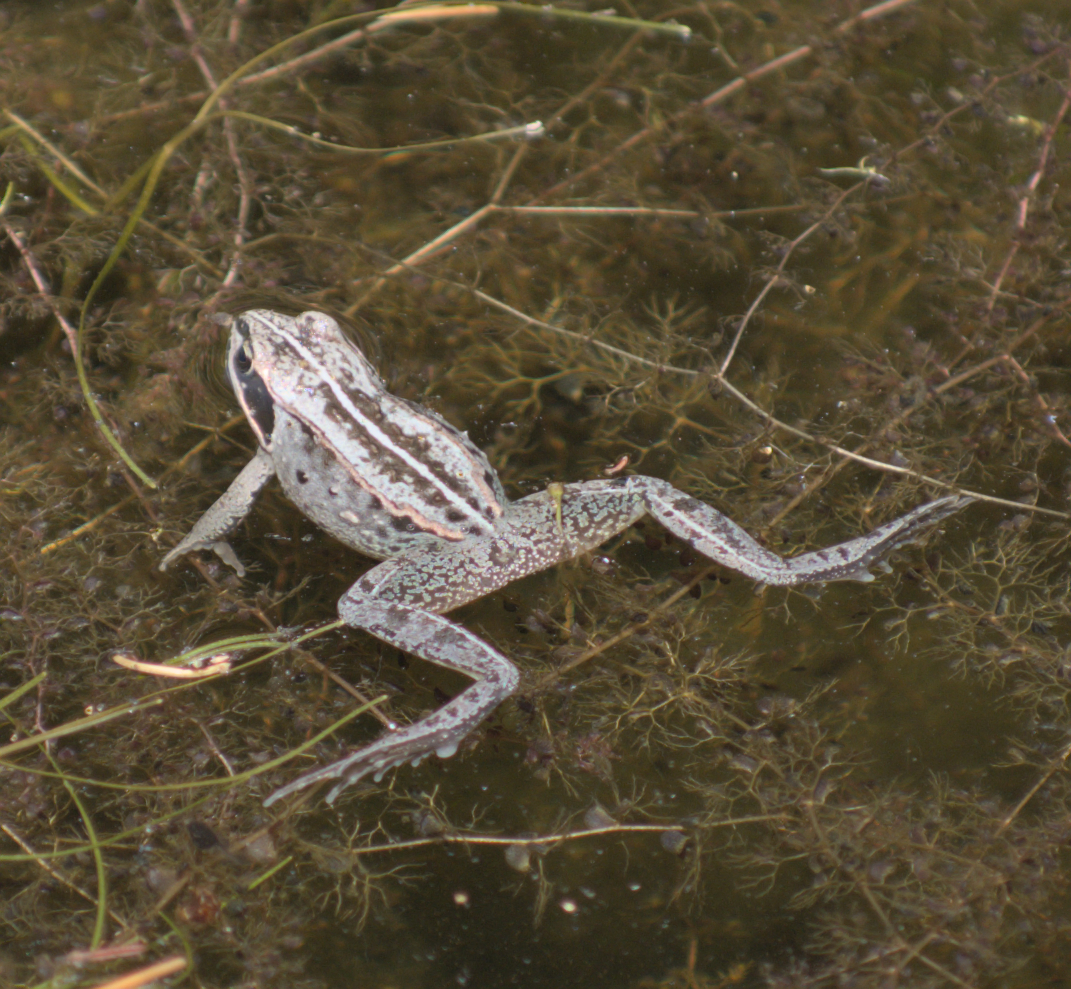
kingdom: Animalia
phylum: Chordata
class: Amphibia
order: Anura
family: Ranidae
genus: Lithobates
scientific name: Lithobates sylvaticus
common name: Wood frog
